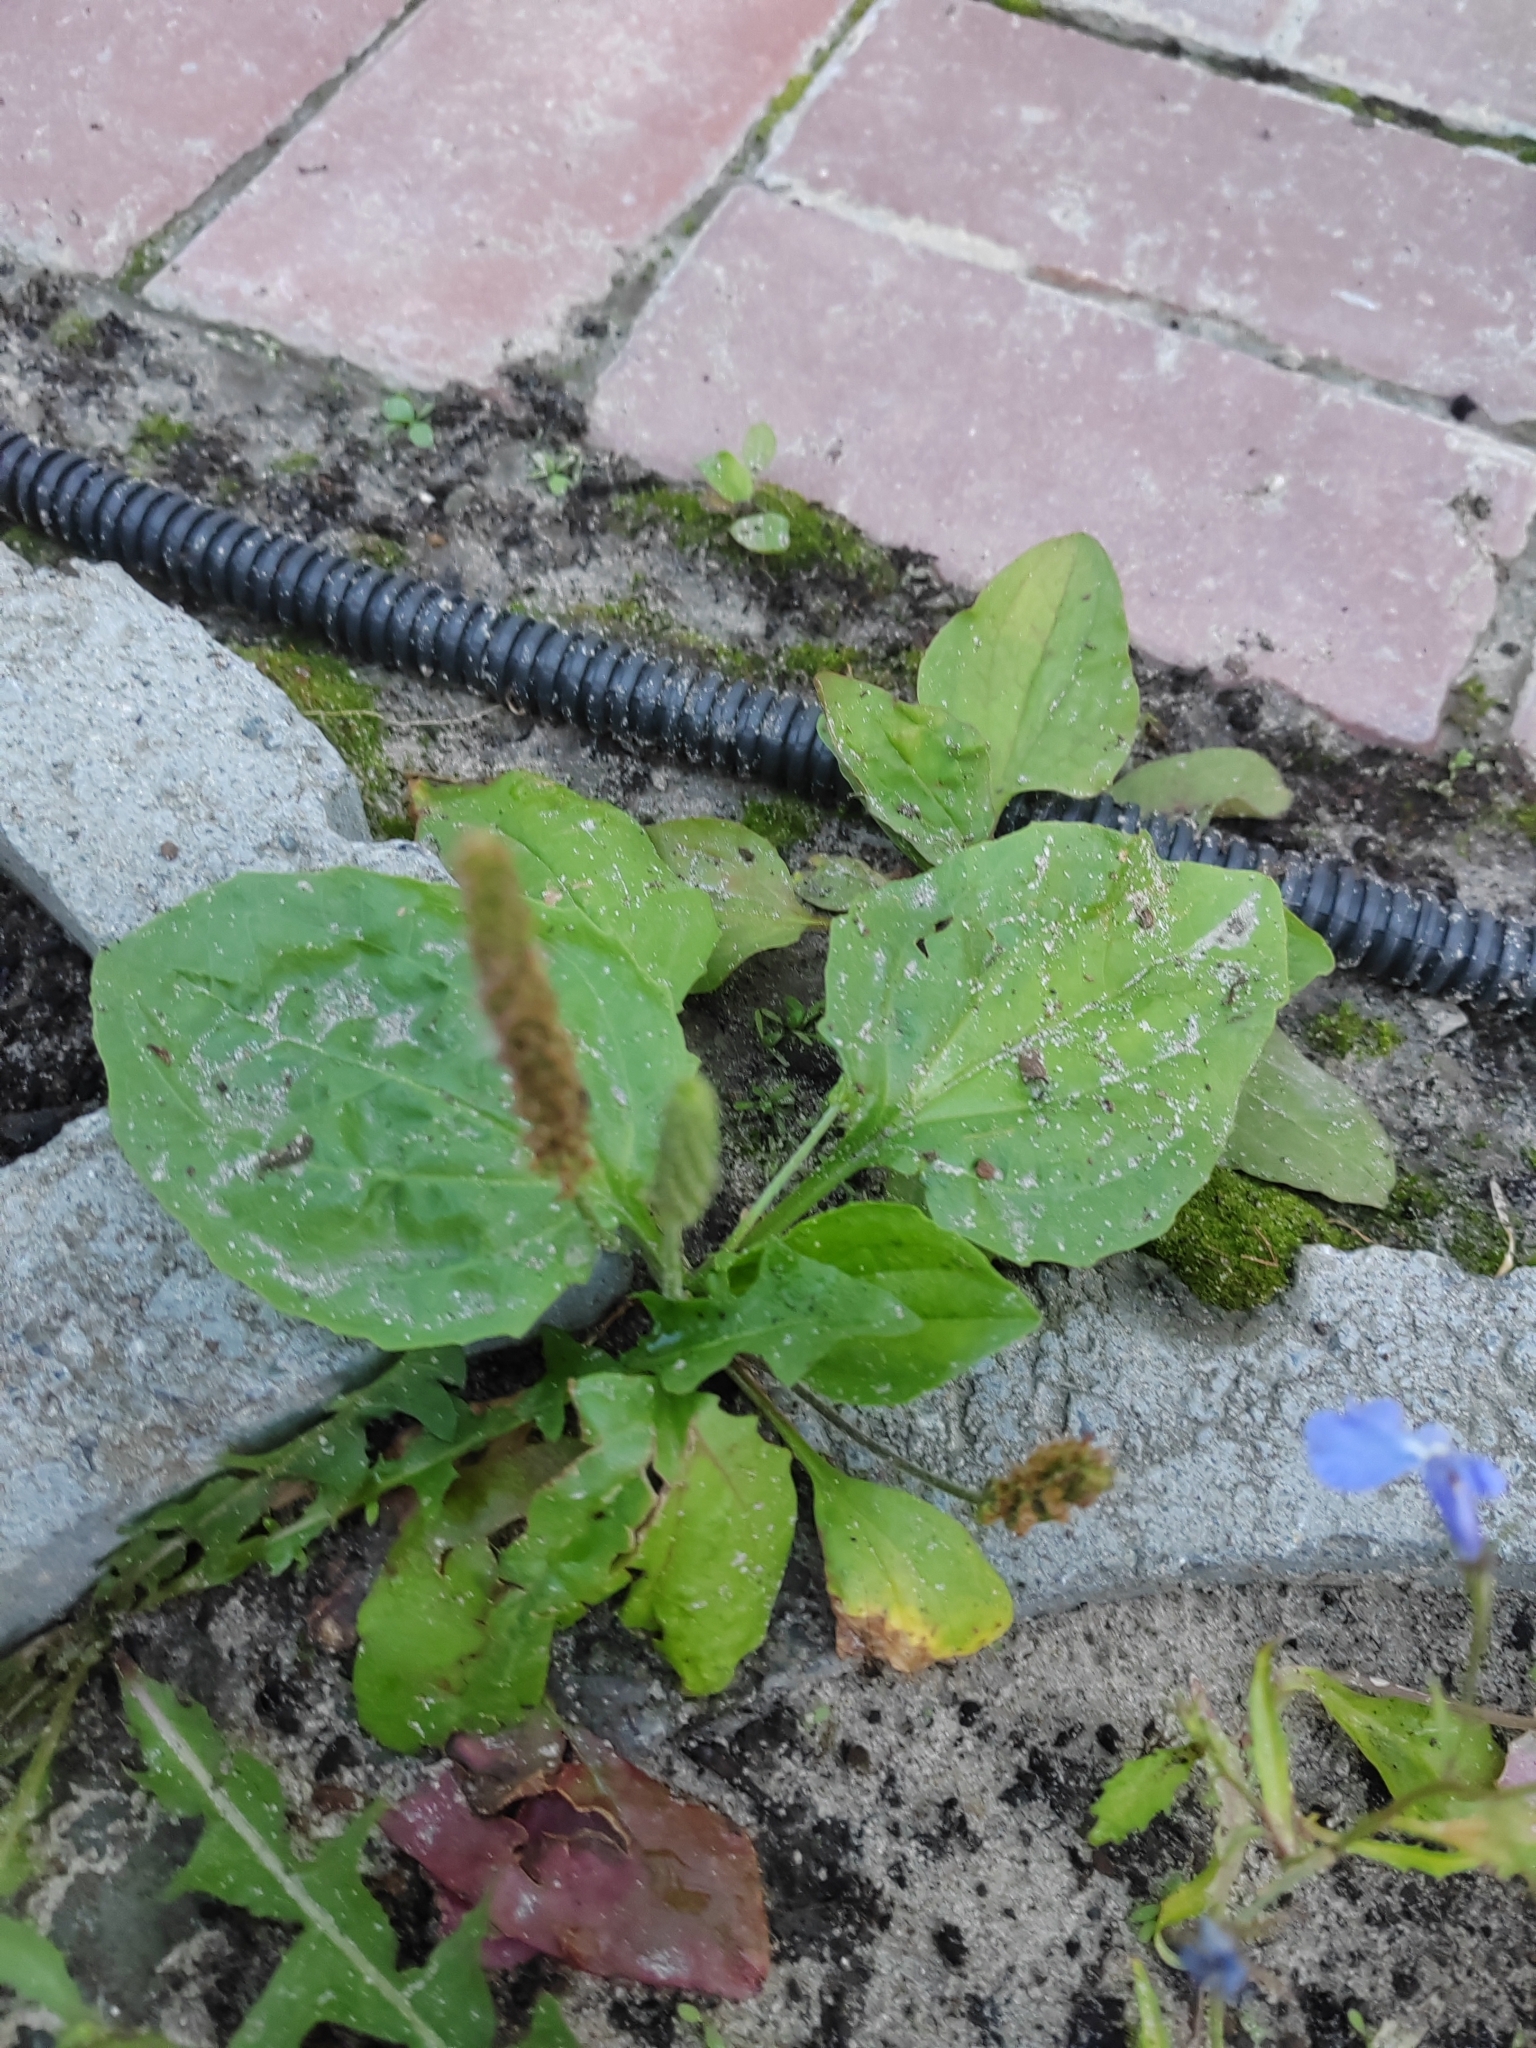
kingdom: Plantae
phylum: Tracheophyta
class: Magnoliopsida
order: Lamiales
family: Plantaginaceae
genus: Plantago
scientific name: Plantago major
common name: Common plantain
